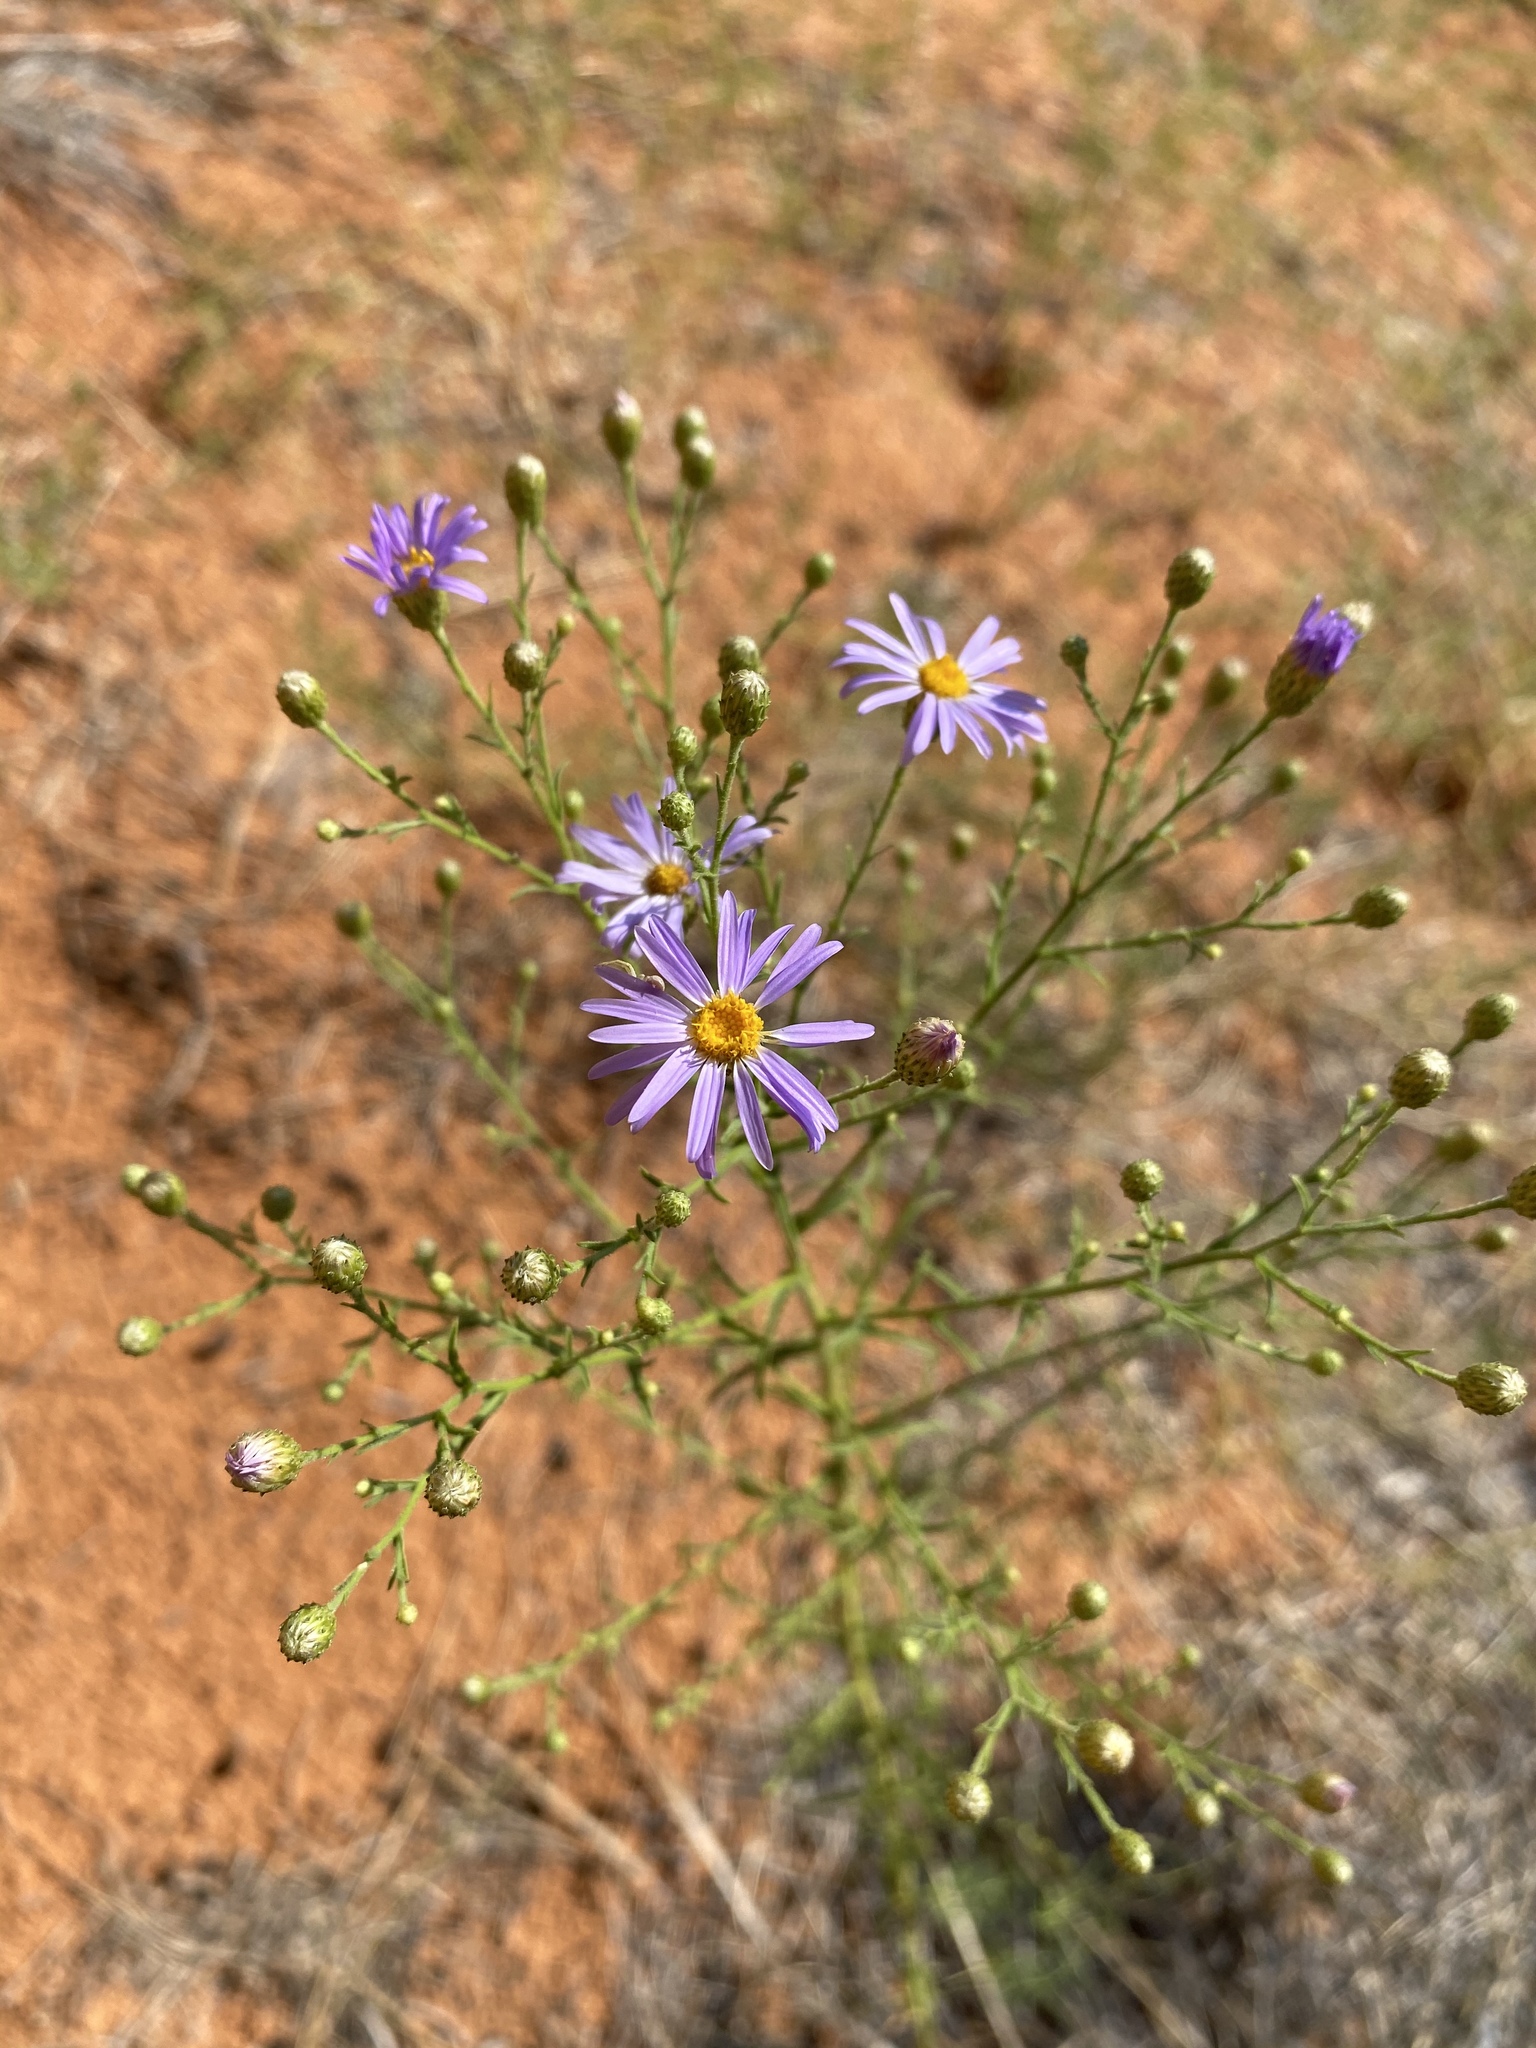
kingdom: Plantae
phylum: Tracheophyta
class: Magnoliopsida
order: Asterales
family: Asteraceae
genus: Dieteria
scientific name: Dieteria canescens
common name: Hoary-aster
